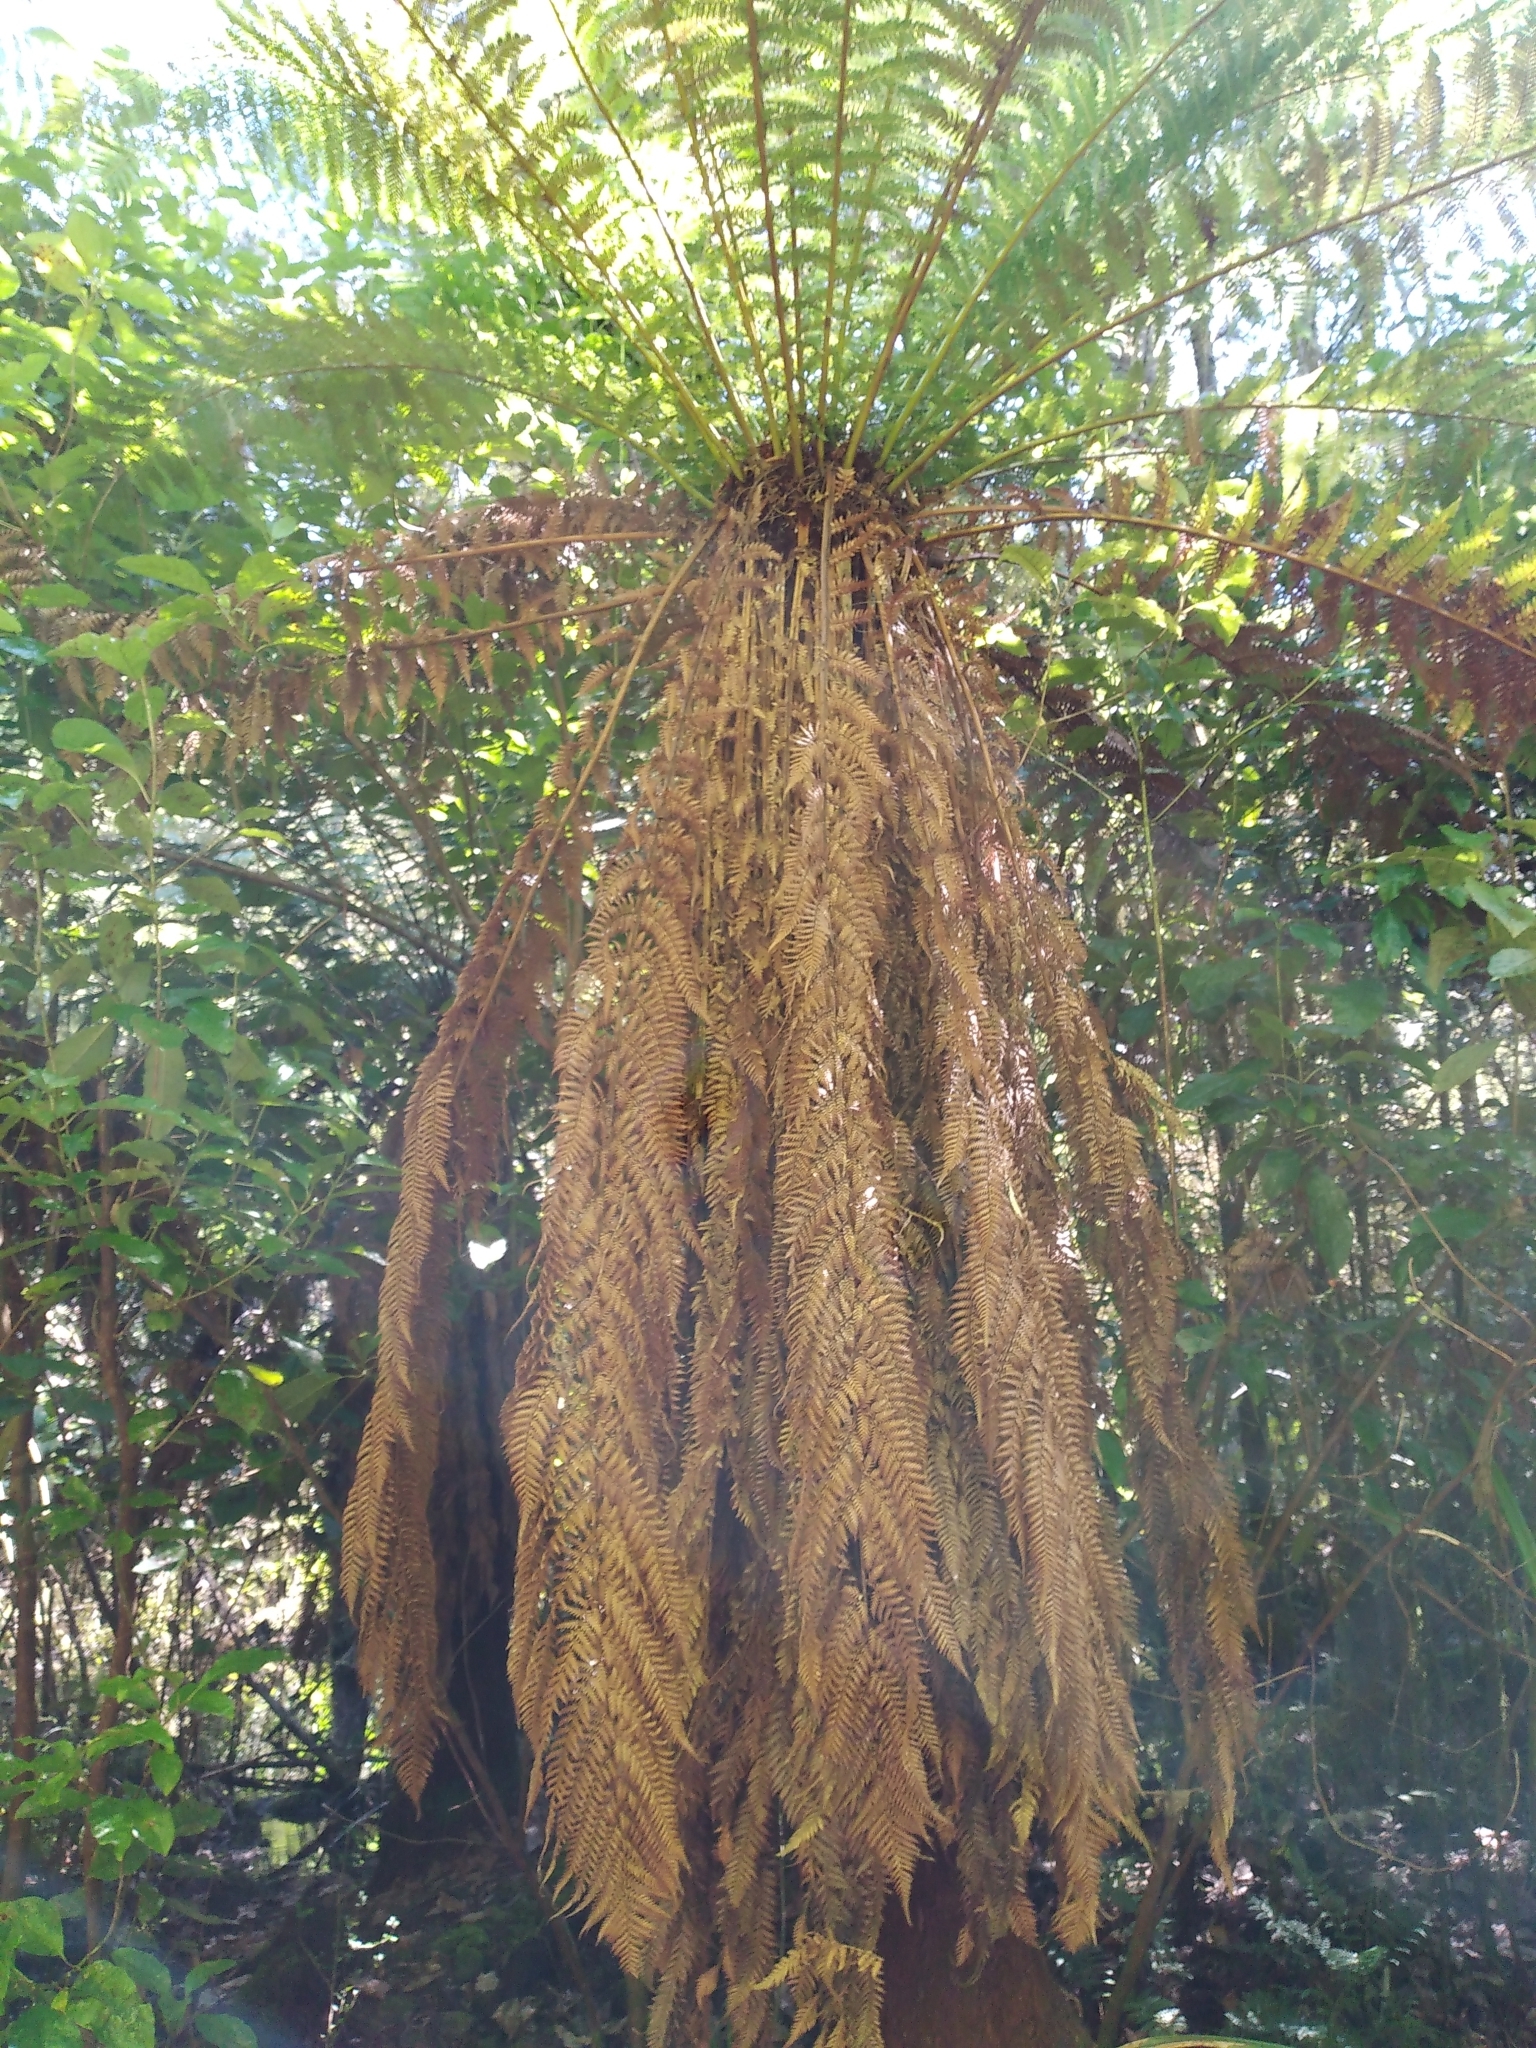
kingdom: Plantae
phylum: Tracheophyta
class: Polypodiopsida
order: Cyatheales
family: Dicksoniaceae
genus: Dicksonia
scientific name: Dicksonia fibrosa
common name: Golden tree fern
